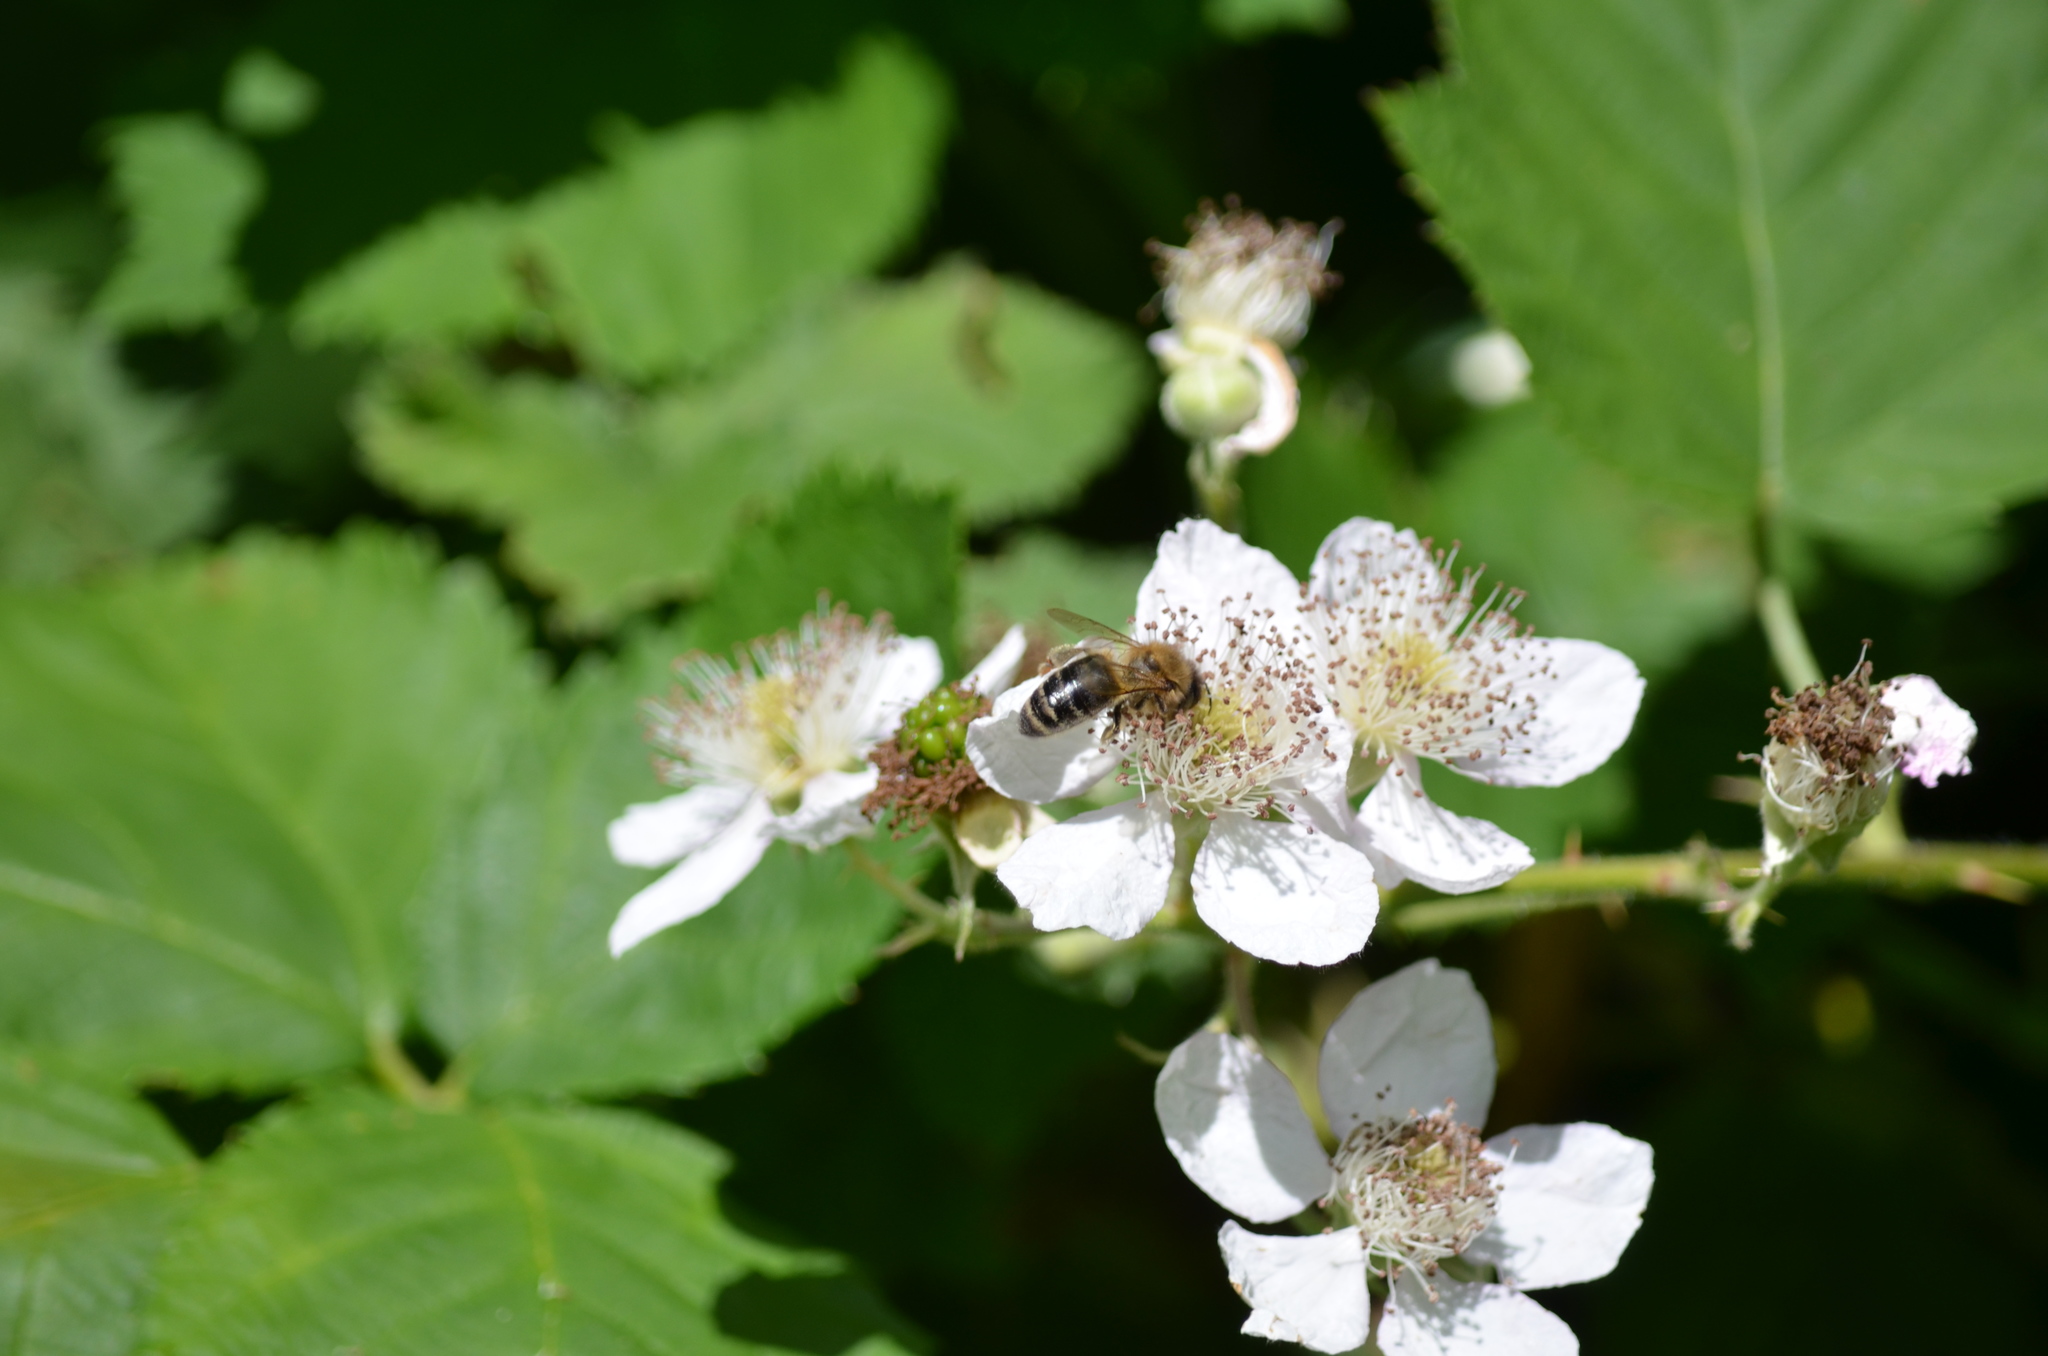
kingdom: Animalia
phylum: Arthropoda
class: Insecta
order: Hymenoptera
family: Apidae
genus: Apis
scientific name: Apis mellifera
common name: Honey bee
